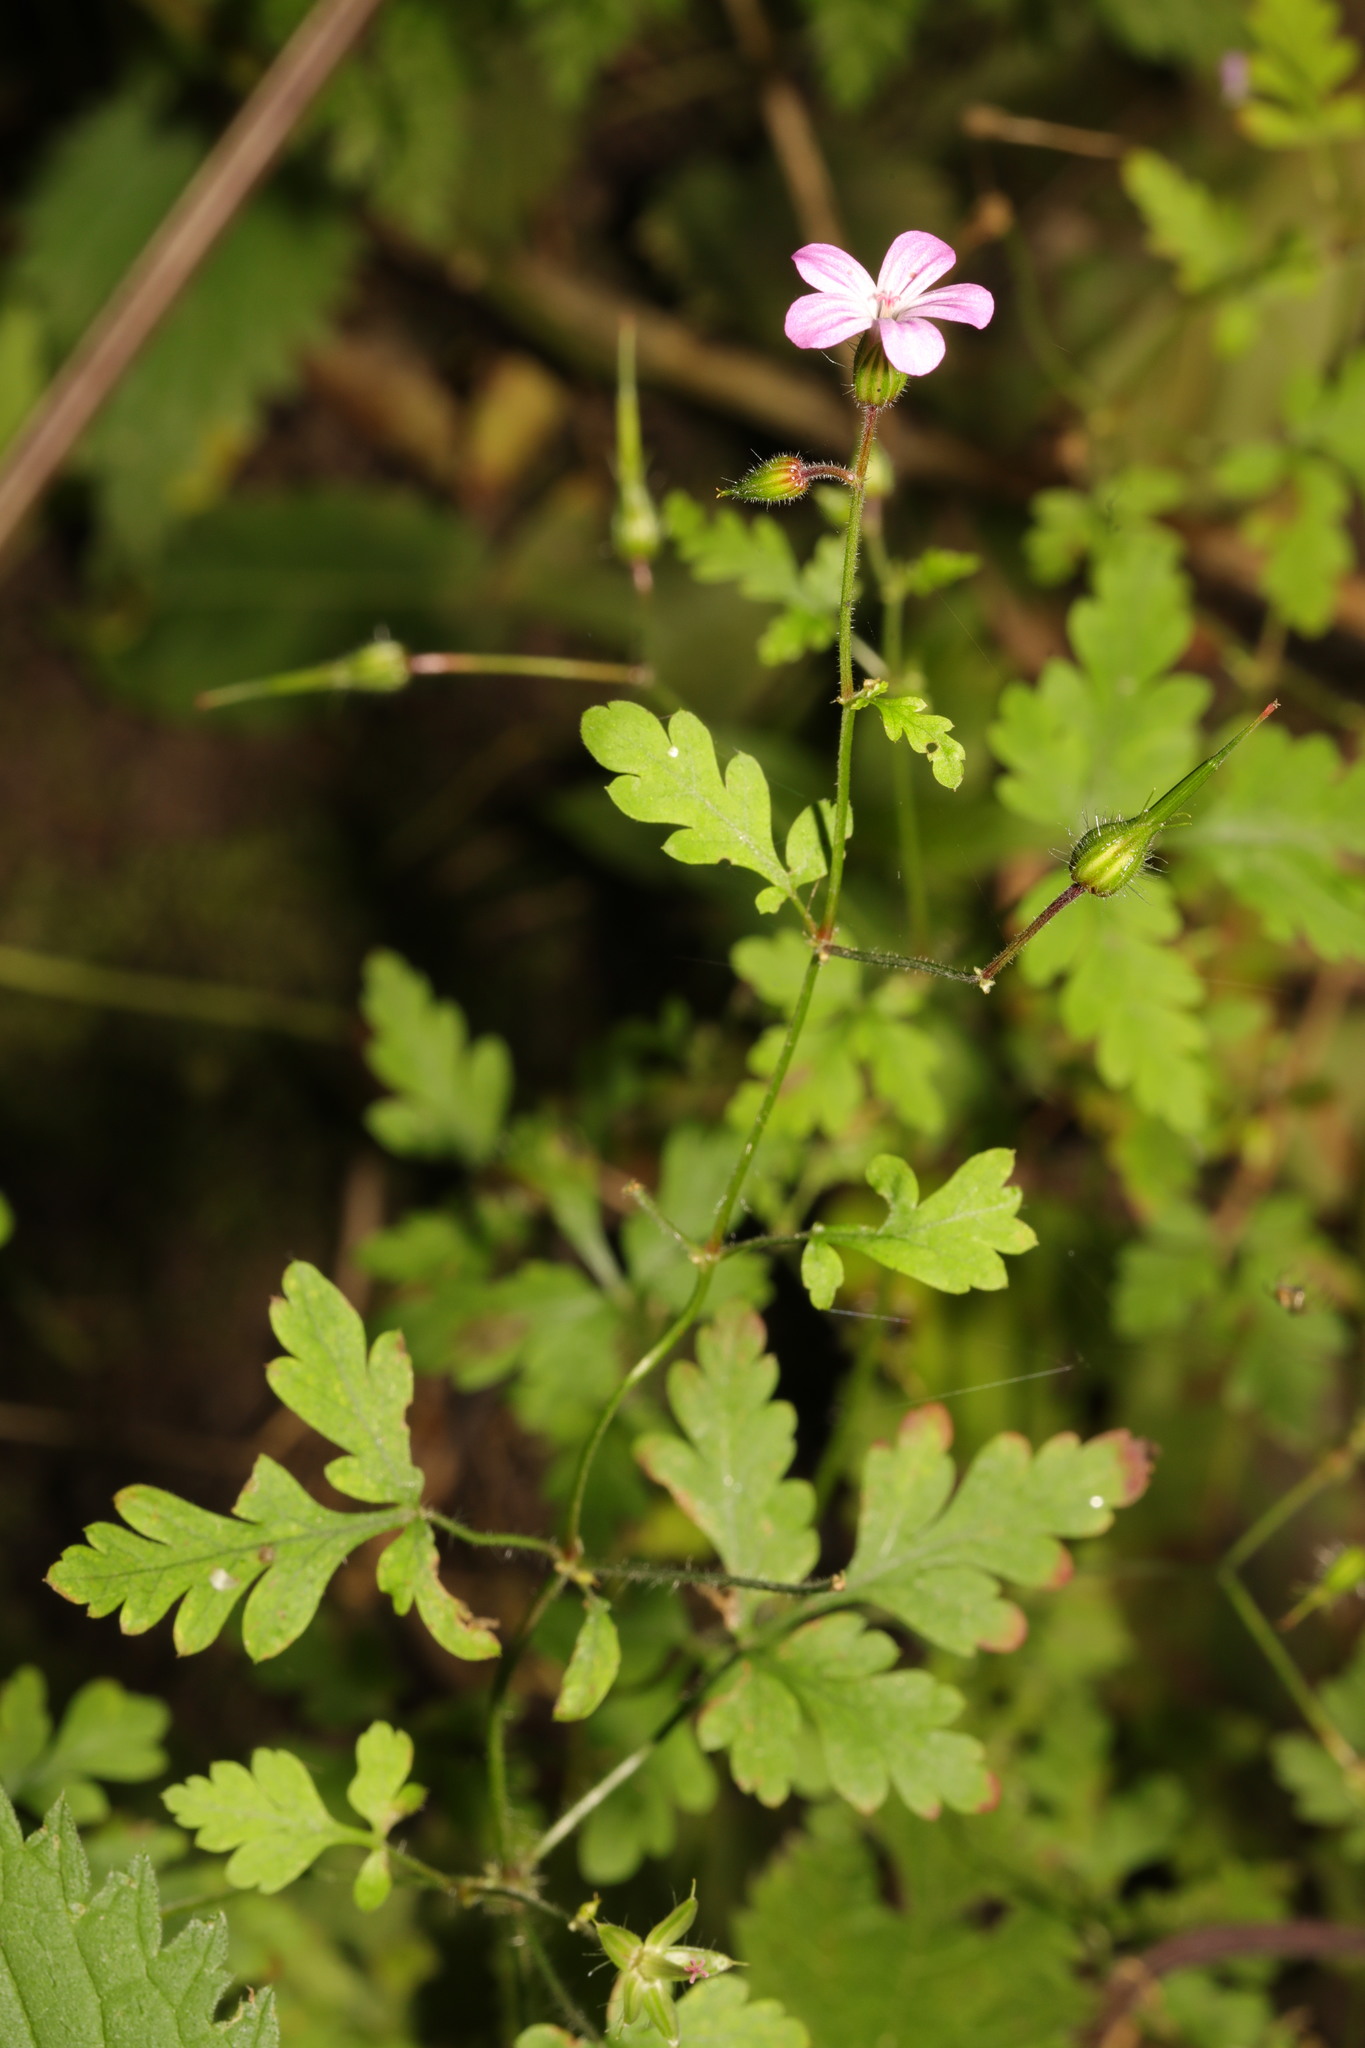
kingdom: Plantae
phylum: Tracheophyta
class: Magnoliopsida
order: Geraniales
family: Geraniaceae
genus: Geranium
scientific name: Geranium robertianum
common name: Herb-robert
